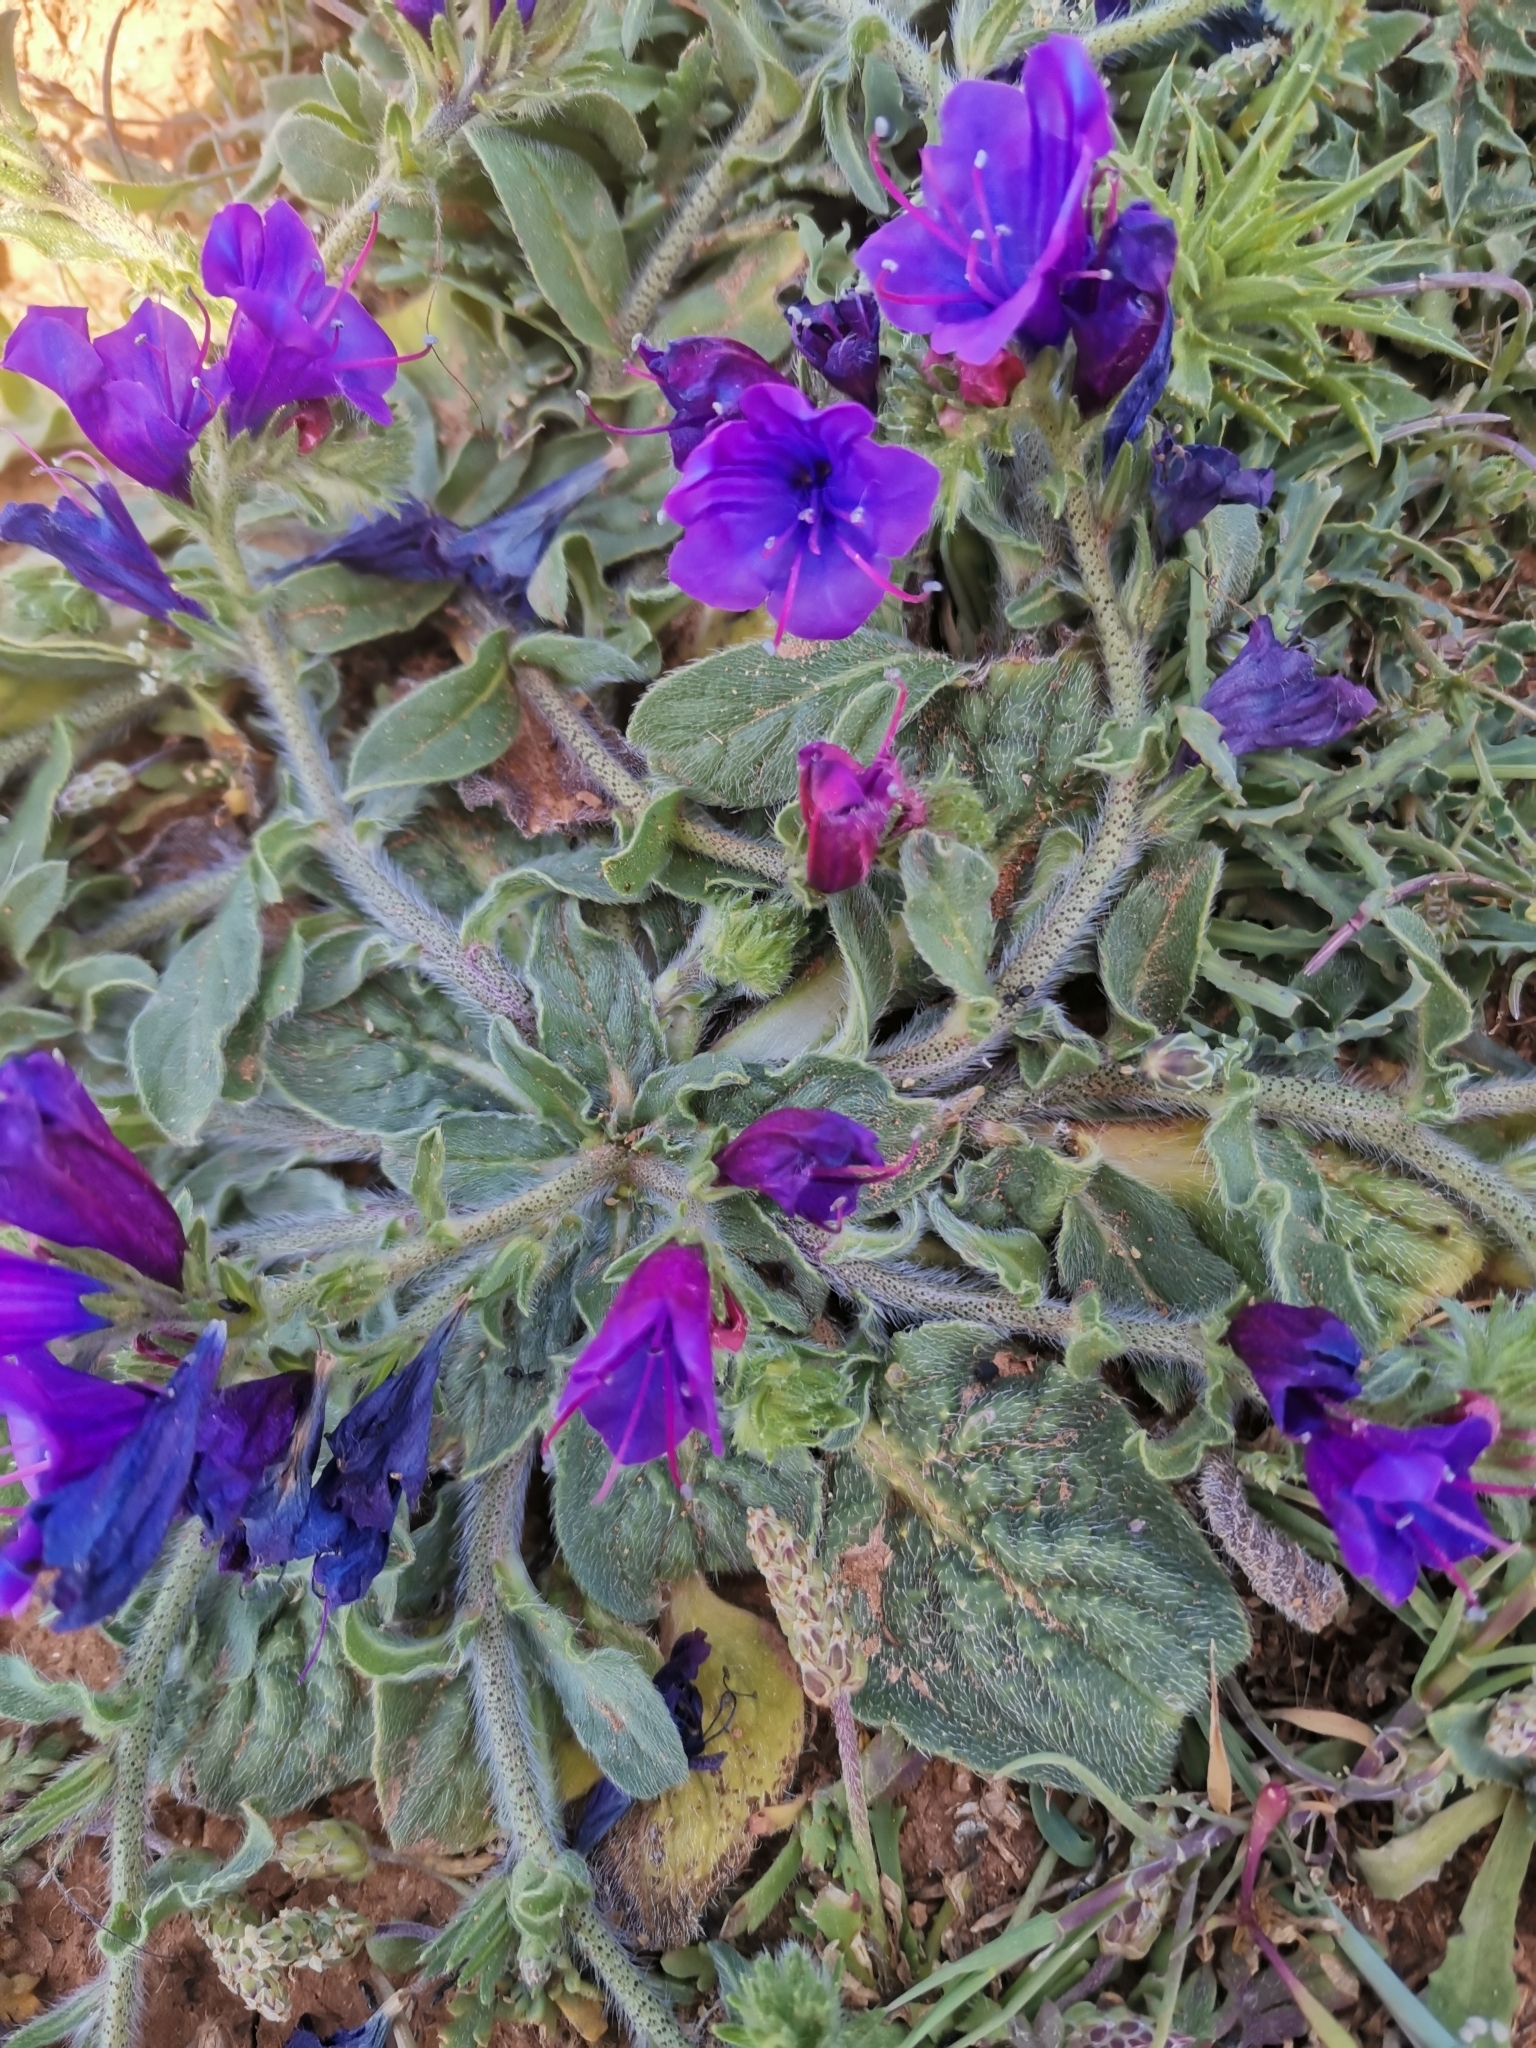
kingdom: Plantae
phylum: Tracheophyta
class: Magnoliopsida
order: Boraginales
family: Boraginaceae
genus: Echium
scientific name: Echium plantagineum
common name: Purple viper's-bugloss
